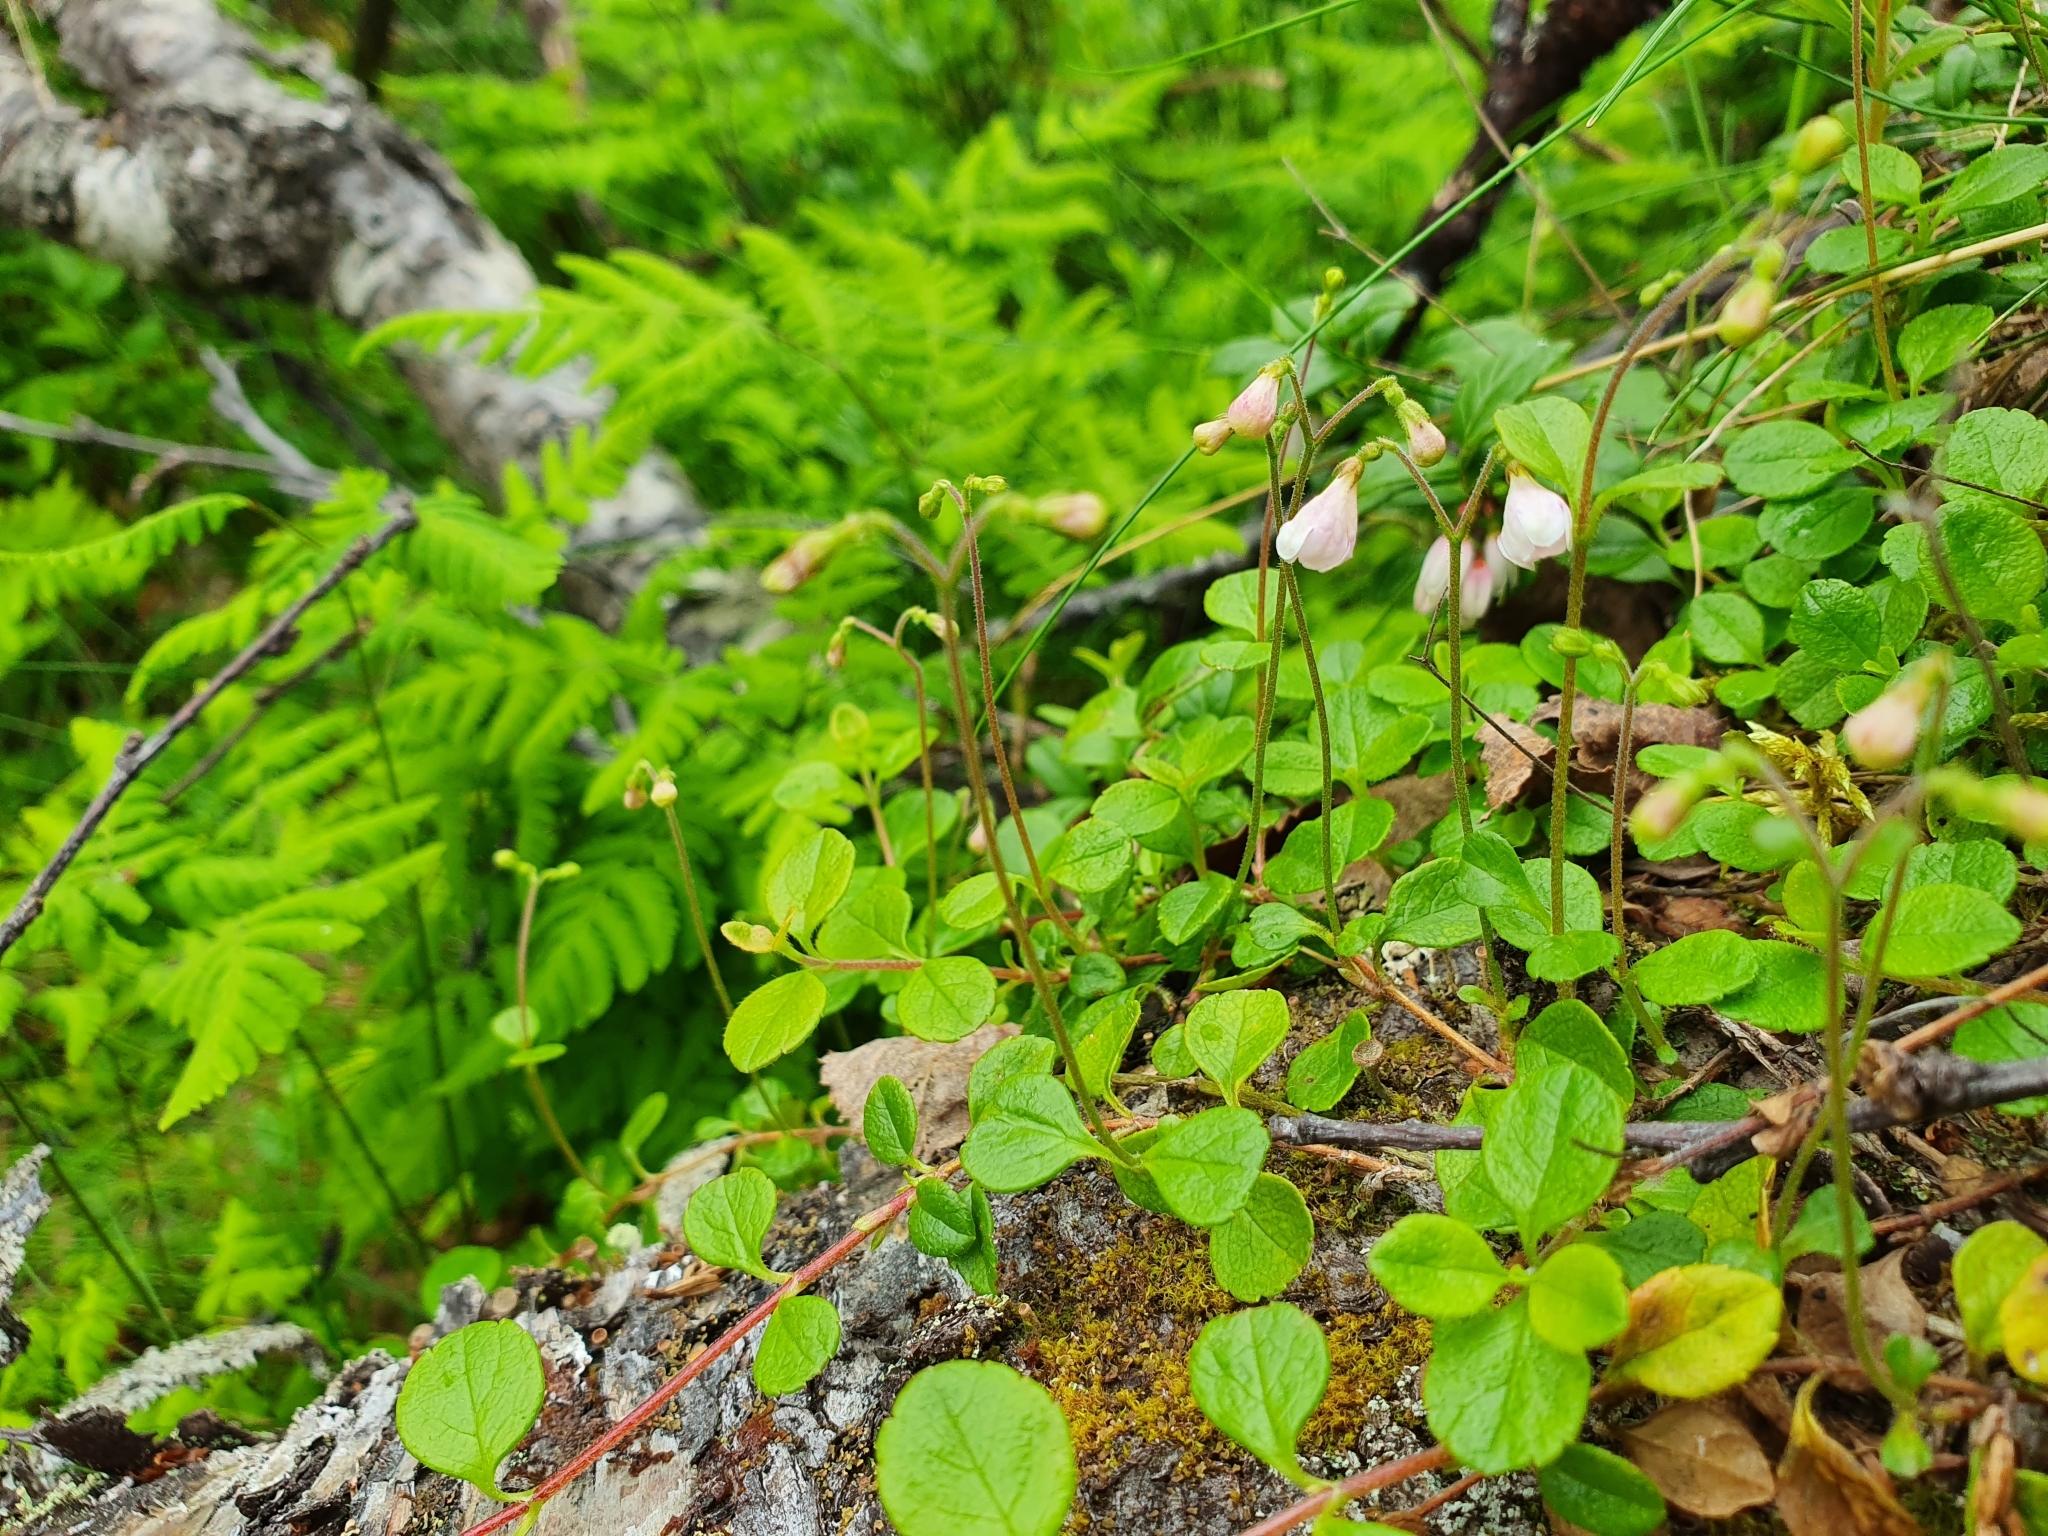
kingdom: Plantae
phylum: Tracheophyta
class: Magnoliopsida
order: Dipsacales
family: Caprifoliaceae
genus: Linnaea
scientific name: Linnaea borealis
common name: Twinflower
